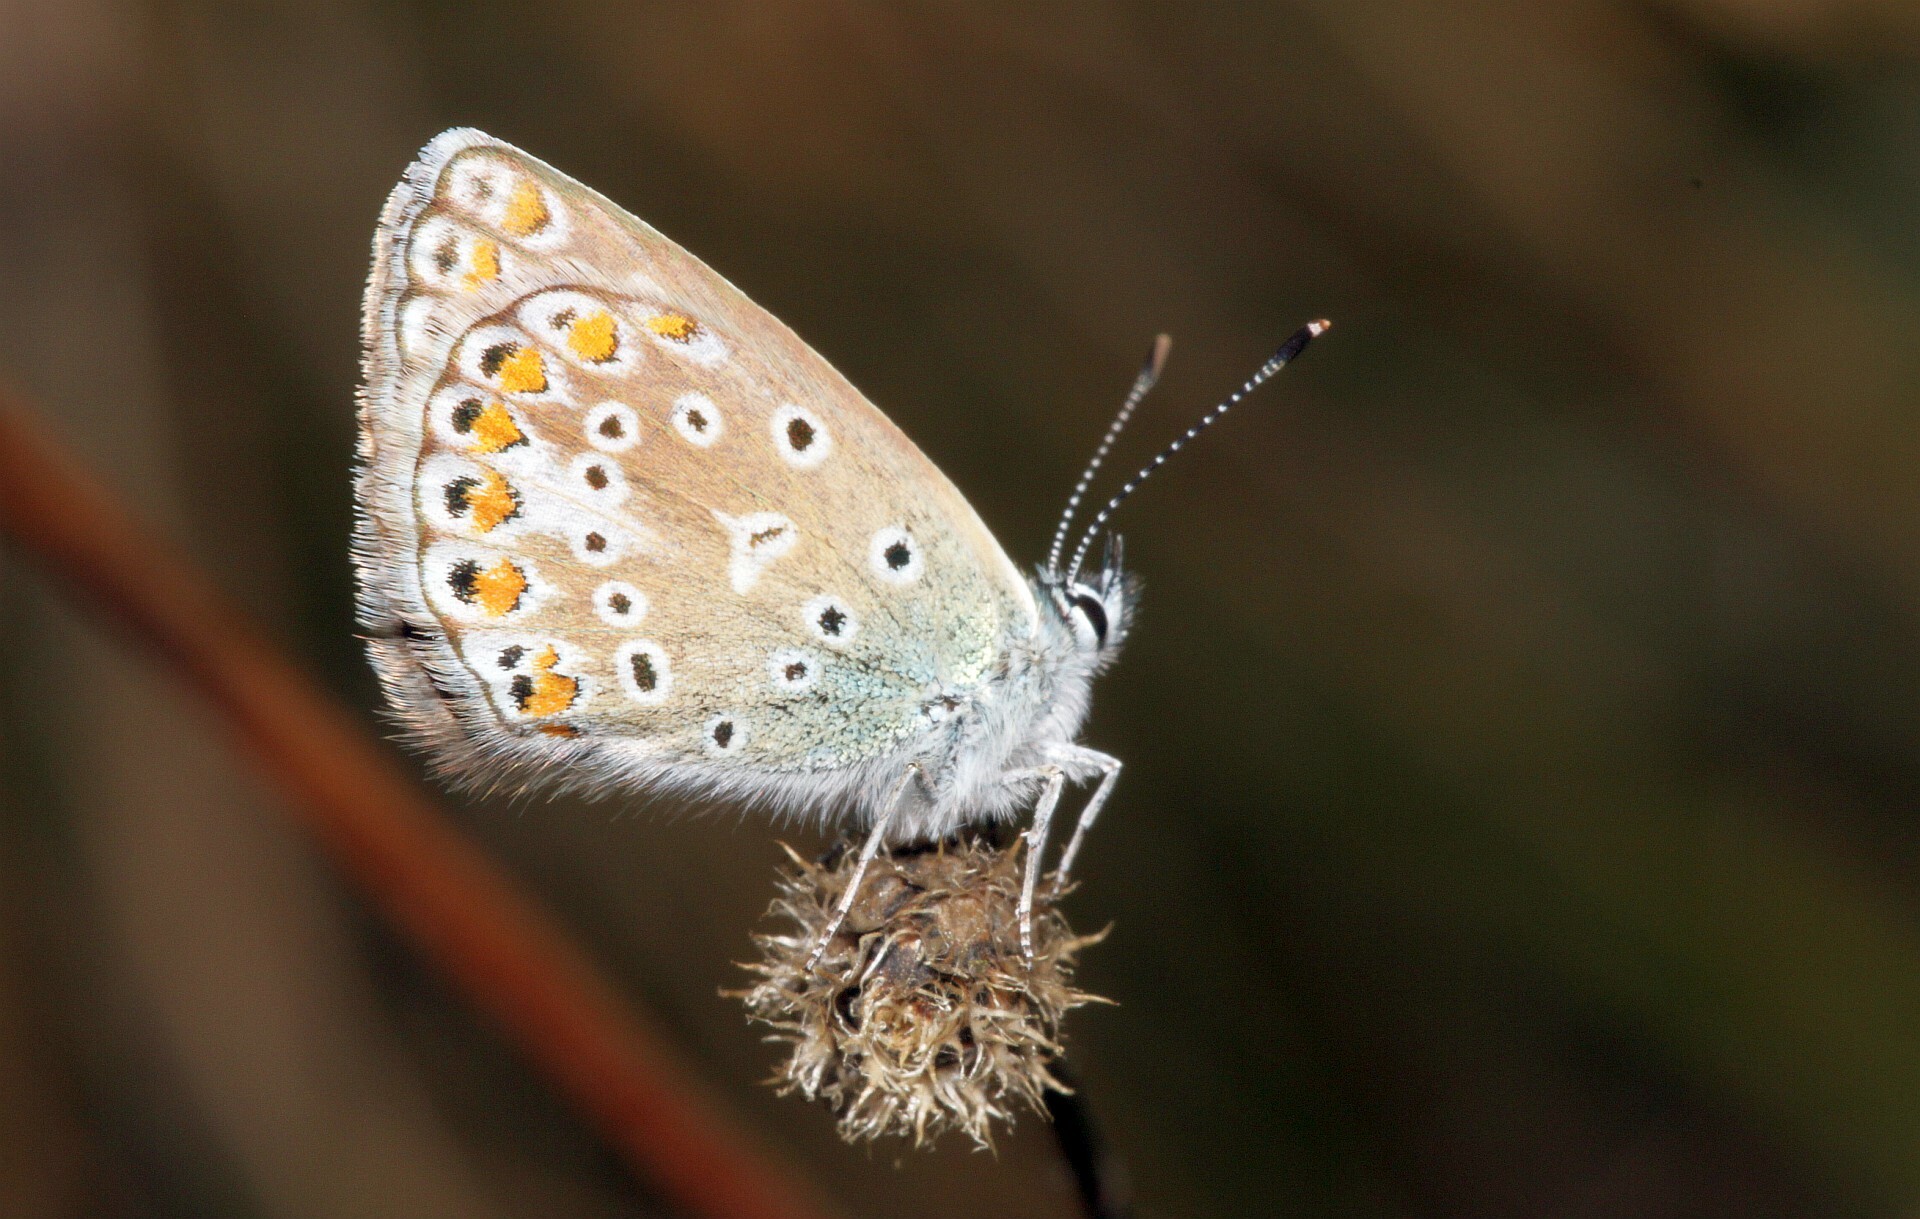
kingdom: Animalia
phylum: Arthropoda
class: Insecta
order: Lepidoptera
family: Lycaenidae
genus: Polyommatus
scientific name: Polyommatus icarus
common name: Common blue
